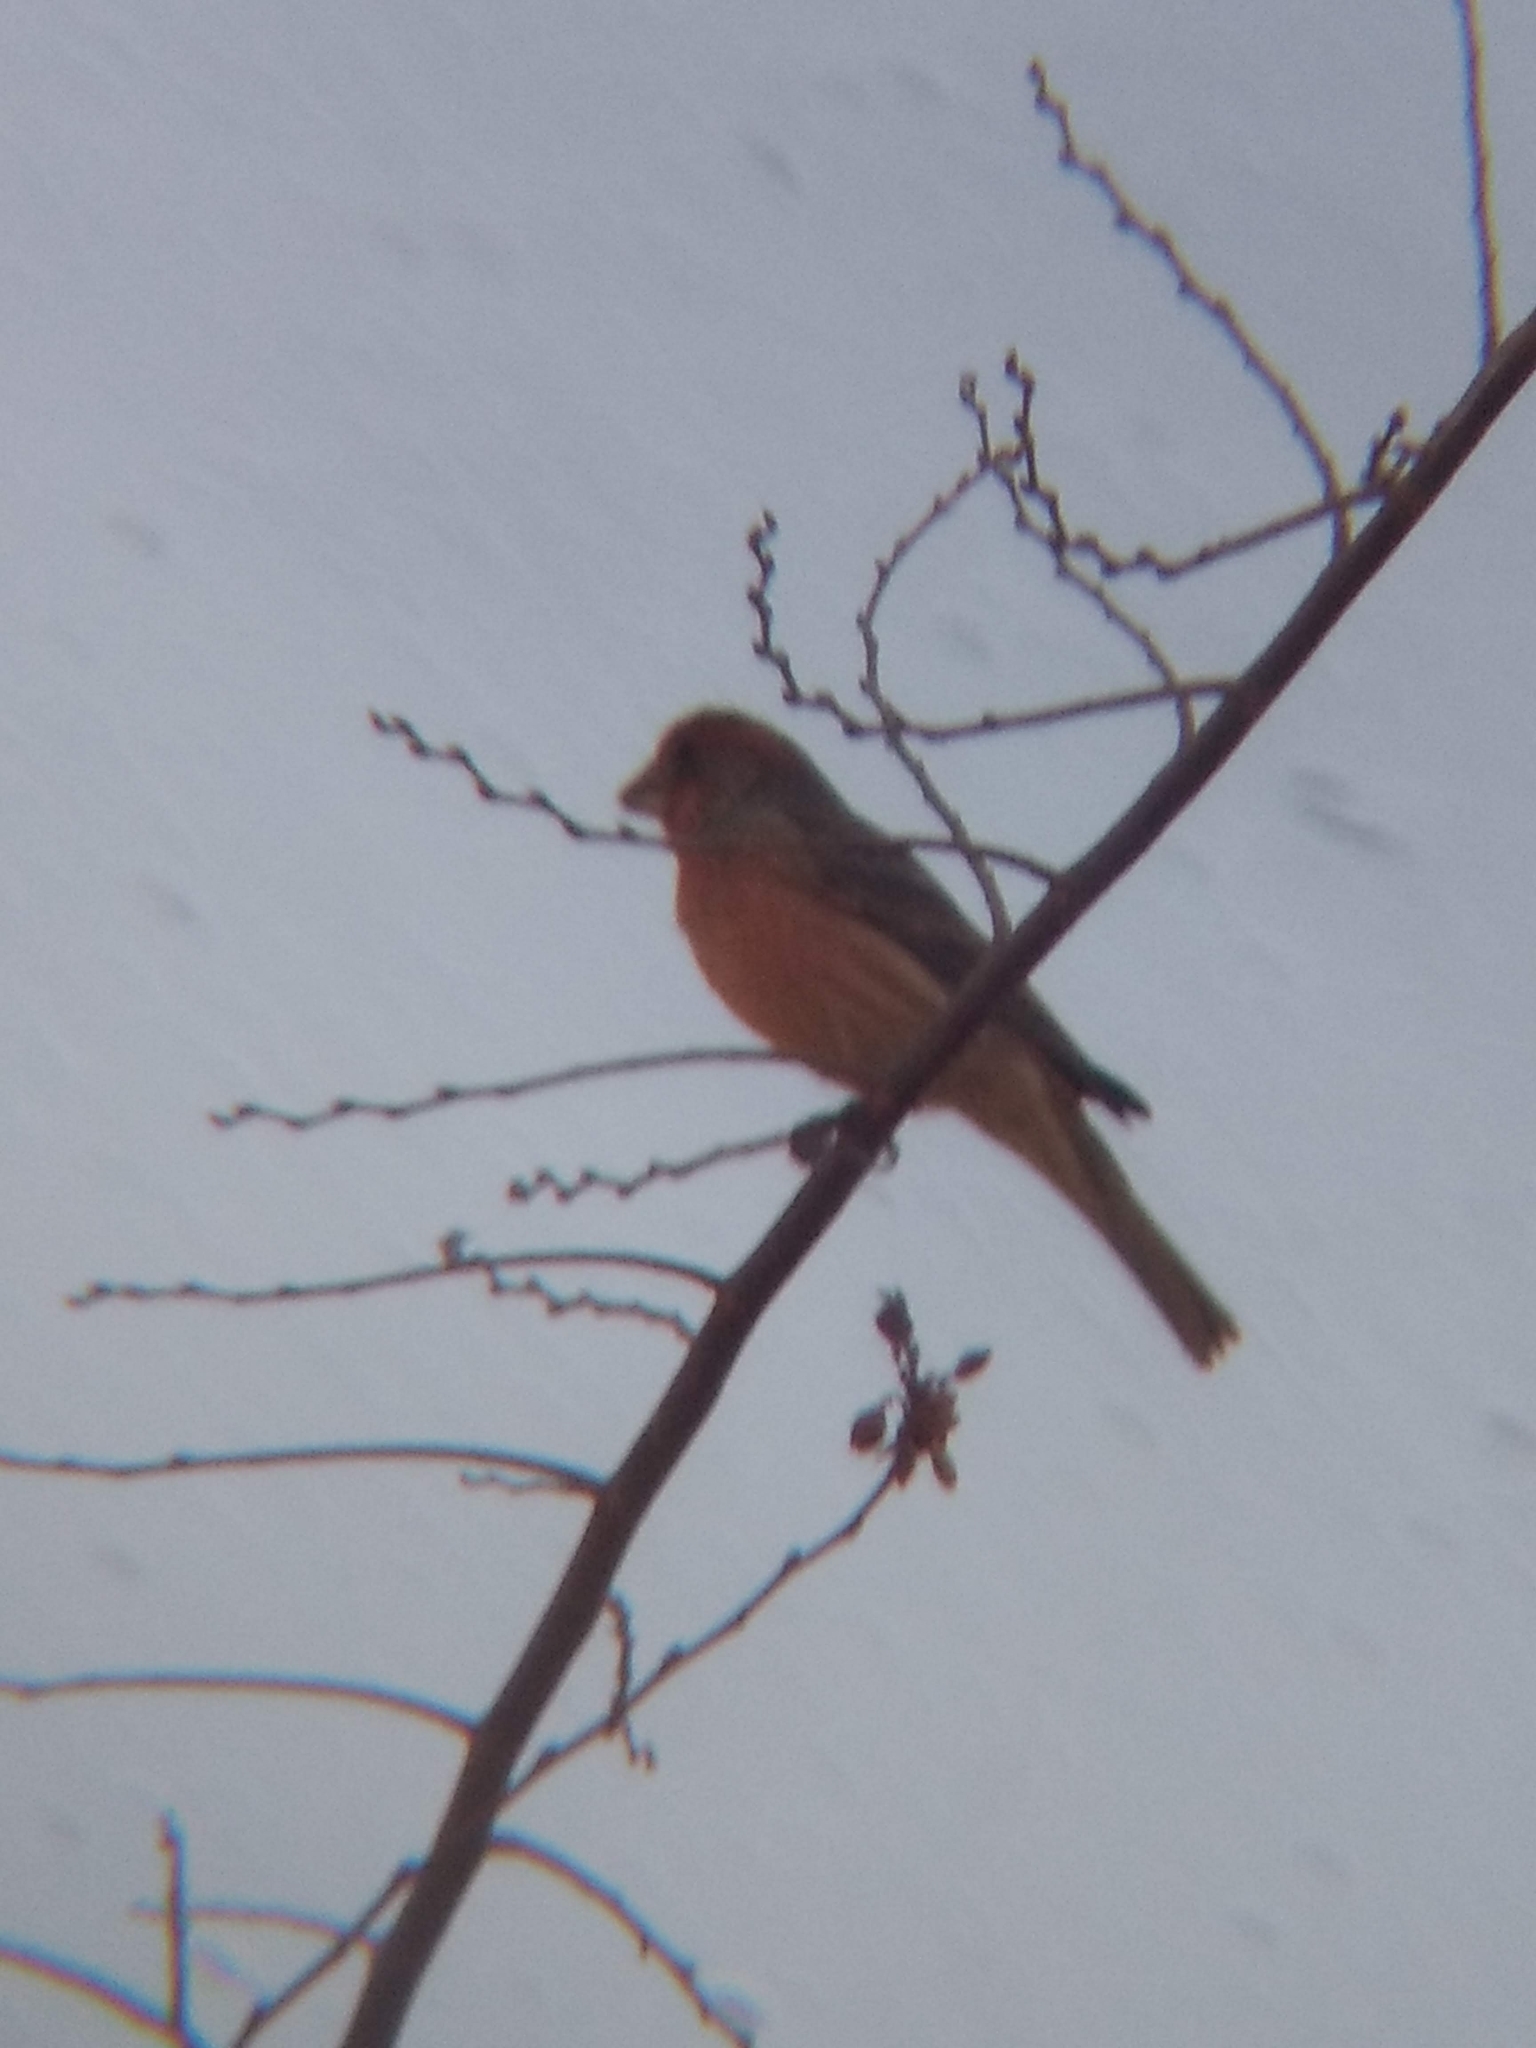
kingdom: Animalia
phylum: Chordata
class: Aves
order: Passeriformes
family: Fringillidae
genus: Haemorhous
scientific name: Haemorhous mexicanus
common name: House finch
